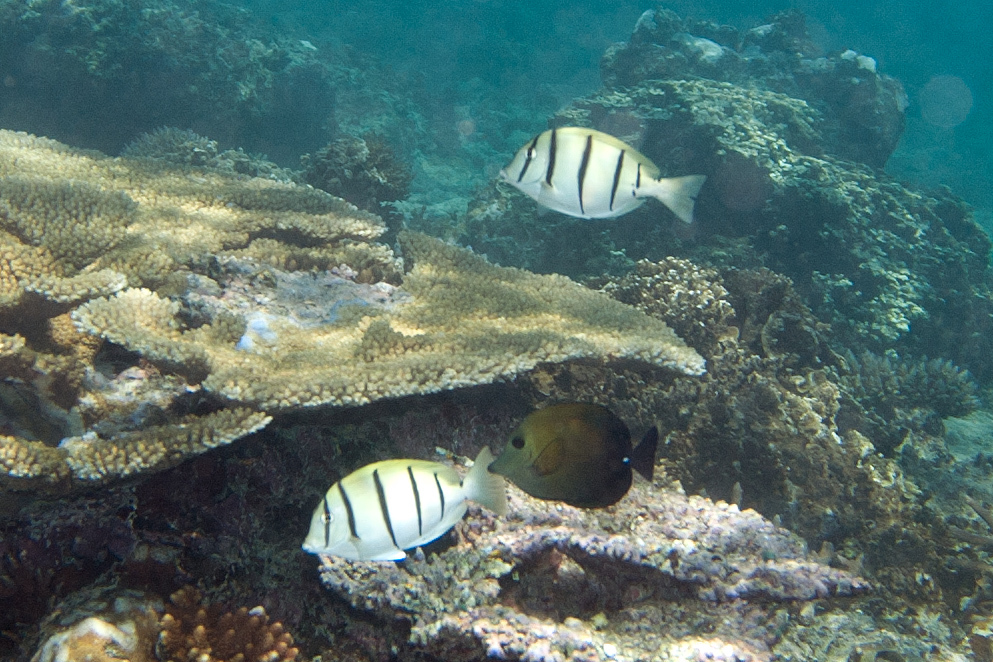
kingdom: Animalia
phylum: Chordata
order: Perciformes
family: Acanthuridae
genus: Acanthurus
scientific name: Acanthurus triostegus
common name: Convict surgeonfish
